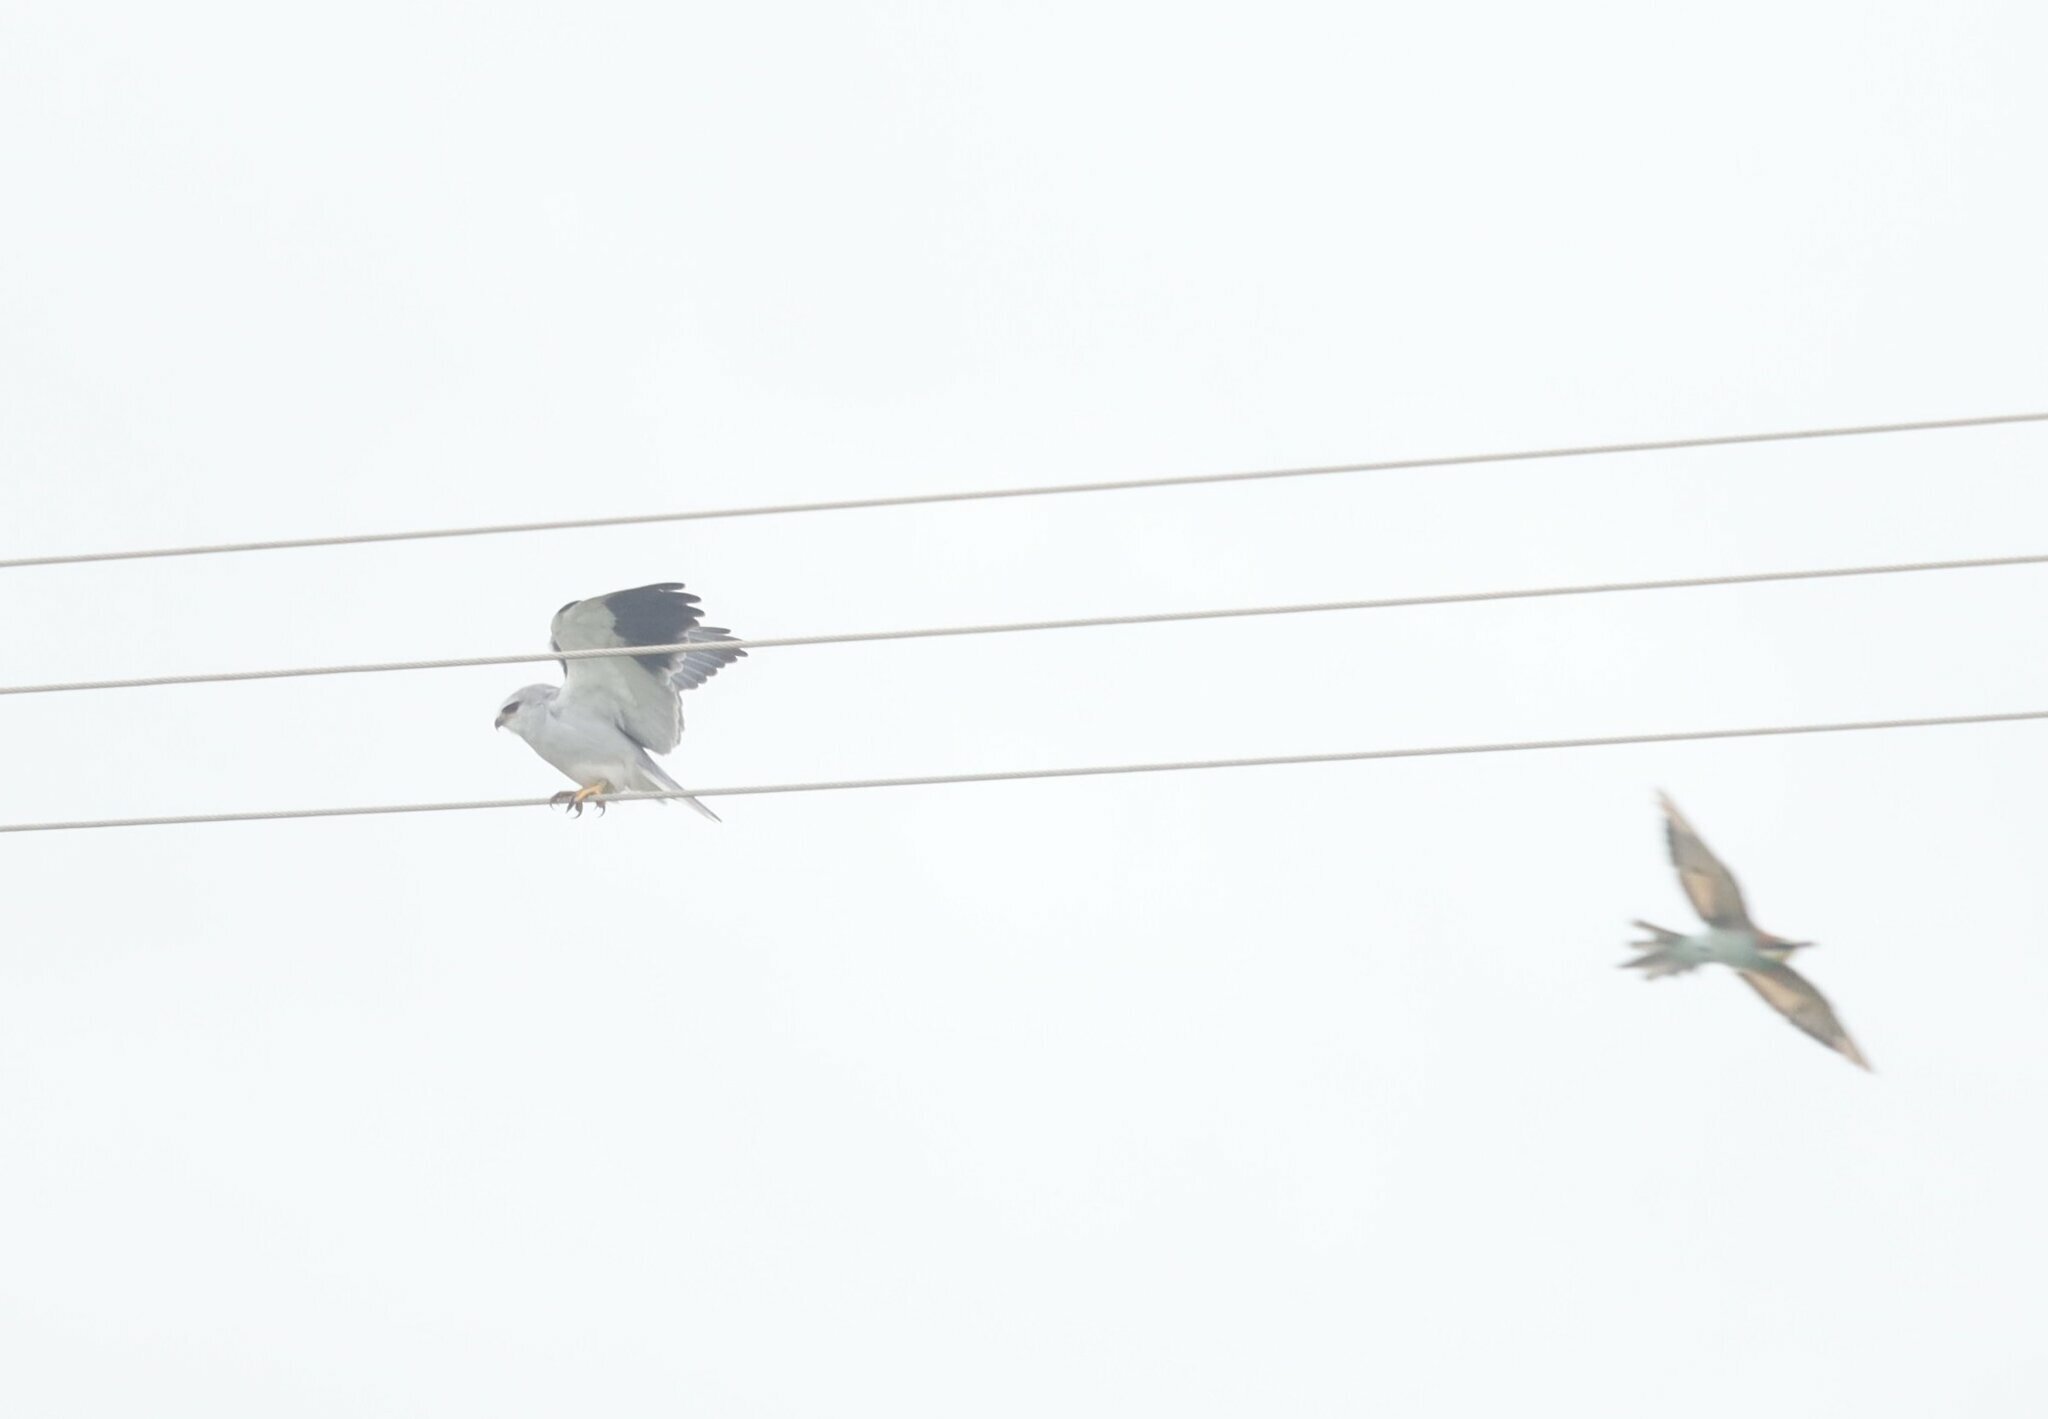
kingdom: Animalia
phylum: Chordata
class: Aves
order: Accipitriformes
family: Accipitridae
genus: Elanus
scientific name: Elanus caeruleus
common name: Black-winged kite
